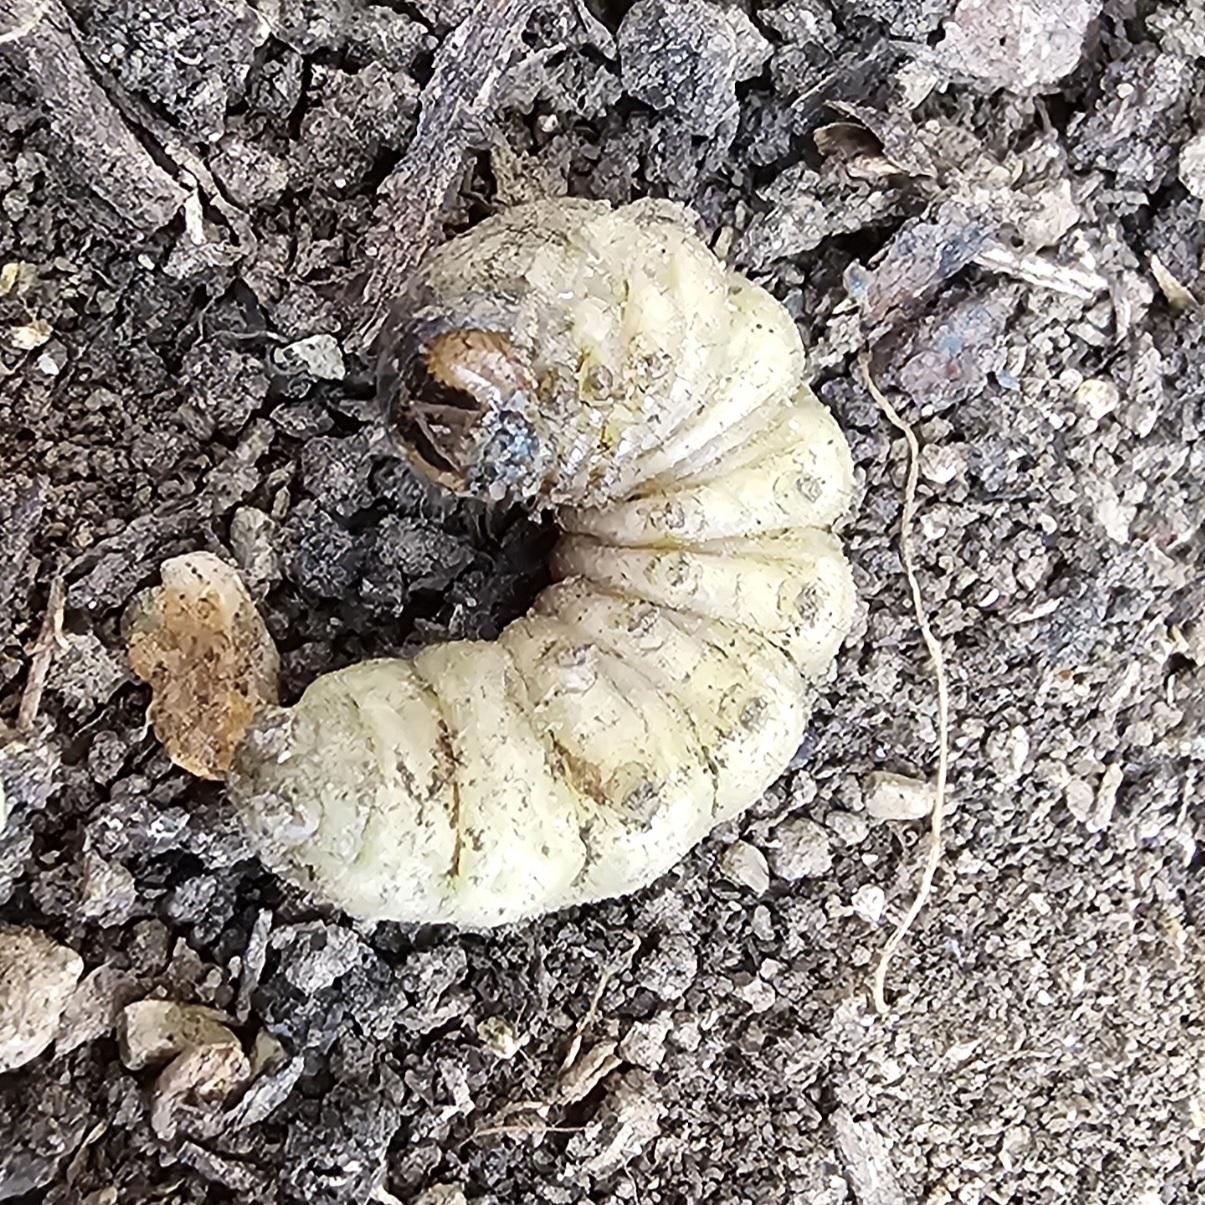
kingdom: Animalia
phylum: Arthropoda
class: Insecta
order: Lepidoptera
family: Noctuidae
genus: Noctua
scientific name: Noctua pronuba
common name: Large yellow underwing
